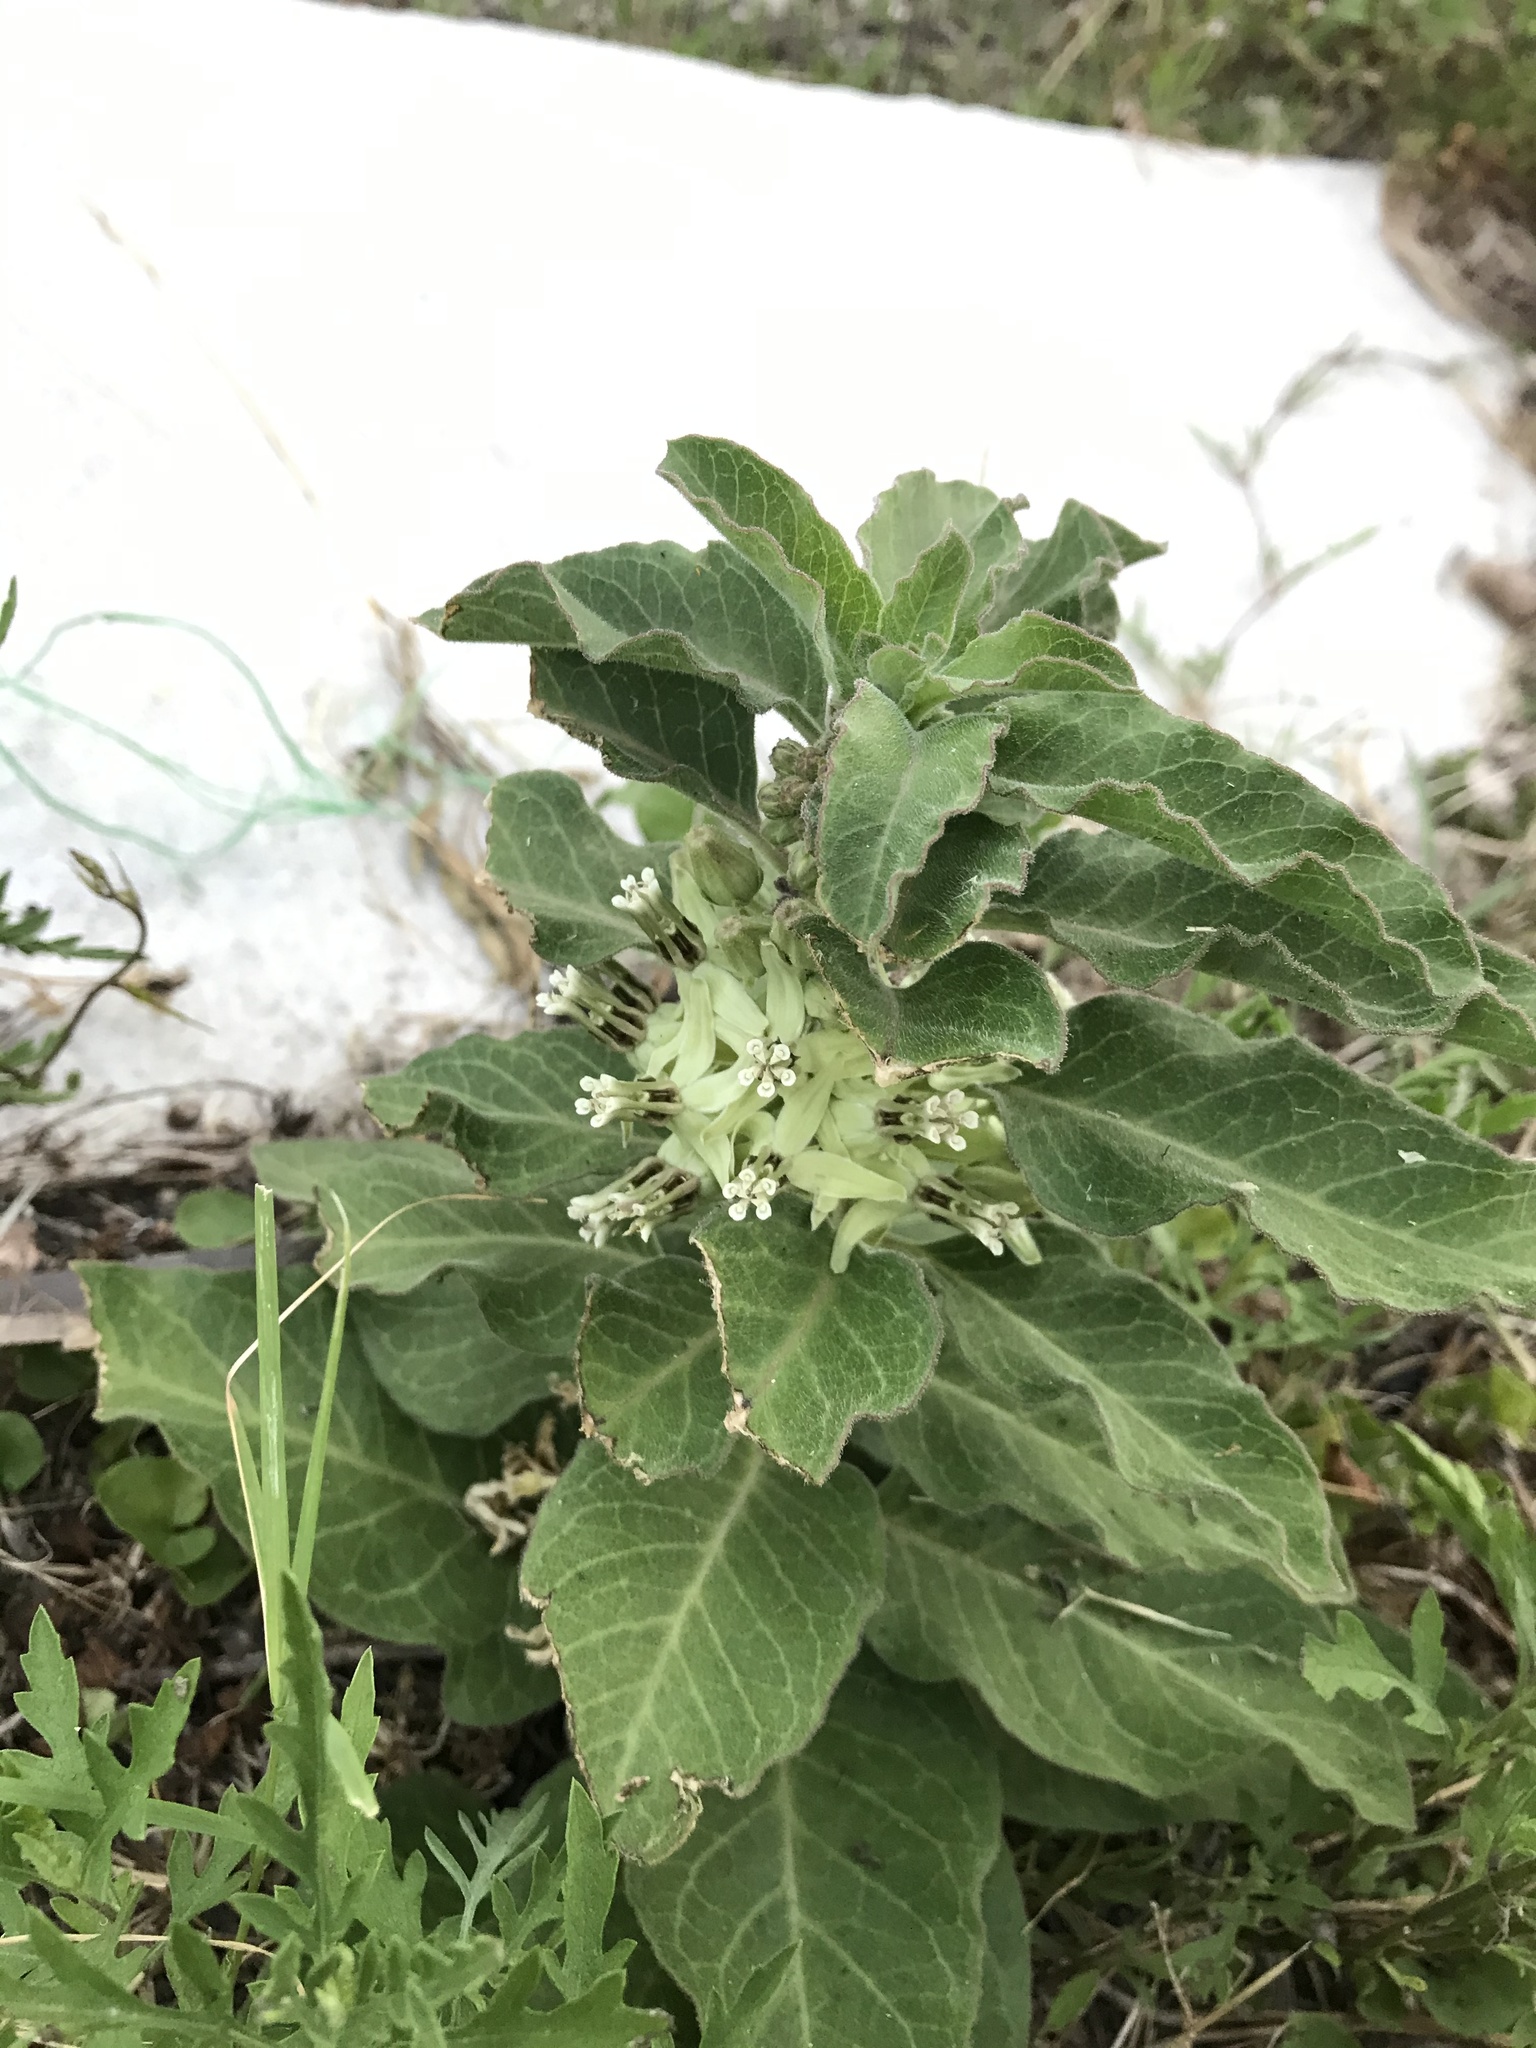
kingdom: Plantae
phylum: Tracheophyta
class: Magnoliopsida
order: Gentianales
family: Apocynaceae
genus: Asclepias
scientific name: Asclepias oenotheroides
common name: Zizotes milkweed
